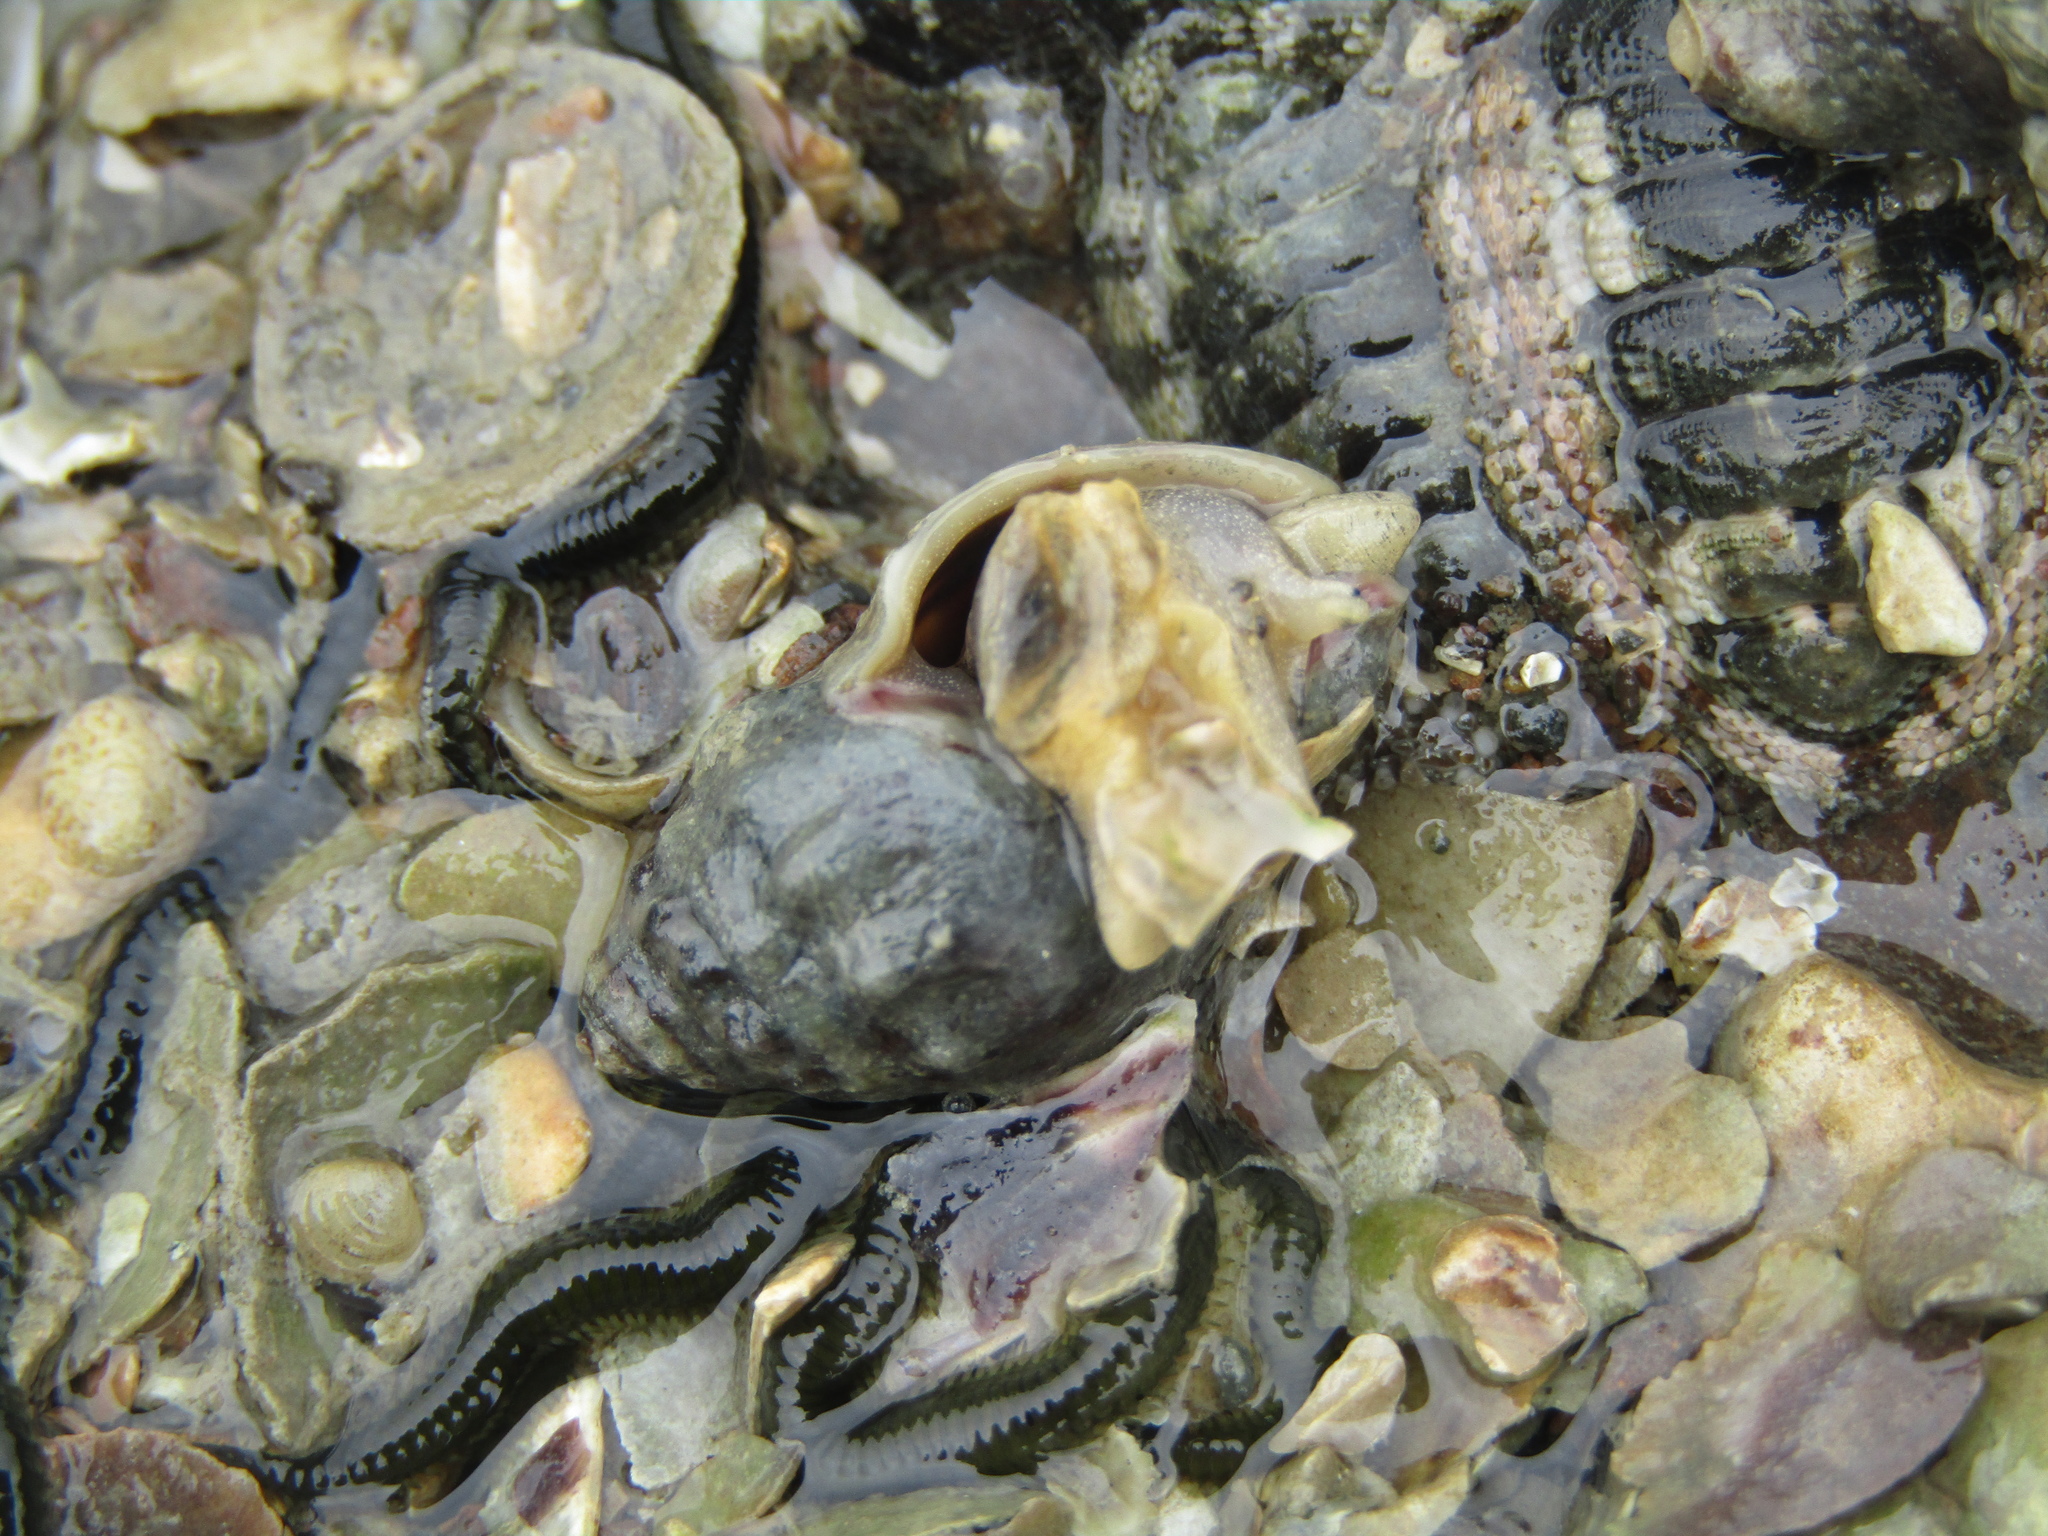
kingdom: Animalia
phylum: Mollusca
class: Gastropoda
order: Neogastropoda
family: Cominellidae
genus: Cominella
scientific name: Cominella glandiformis
